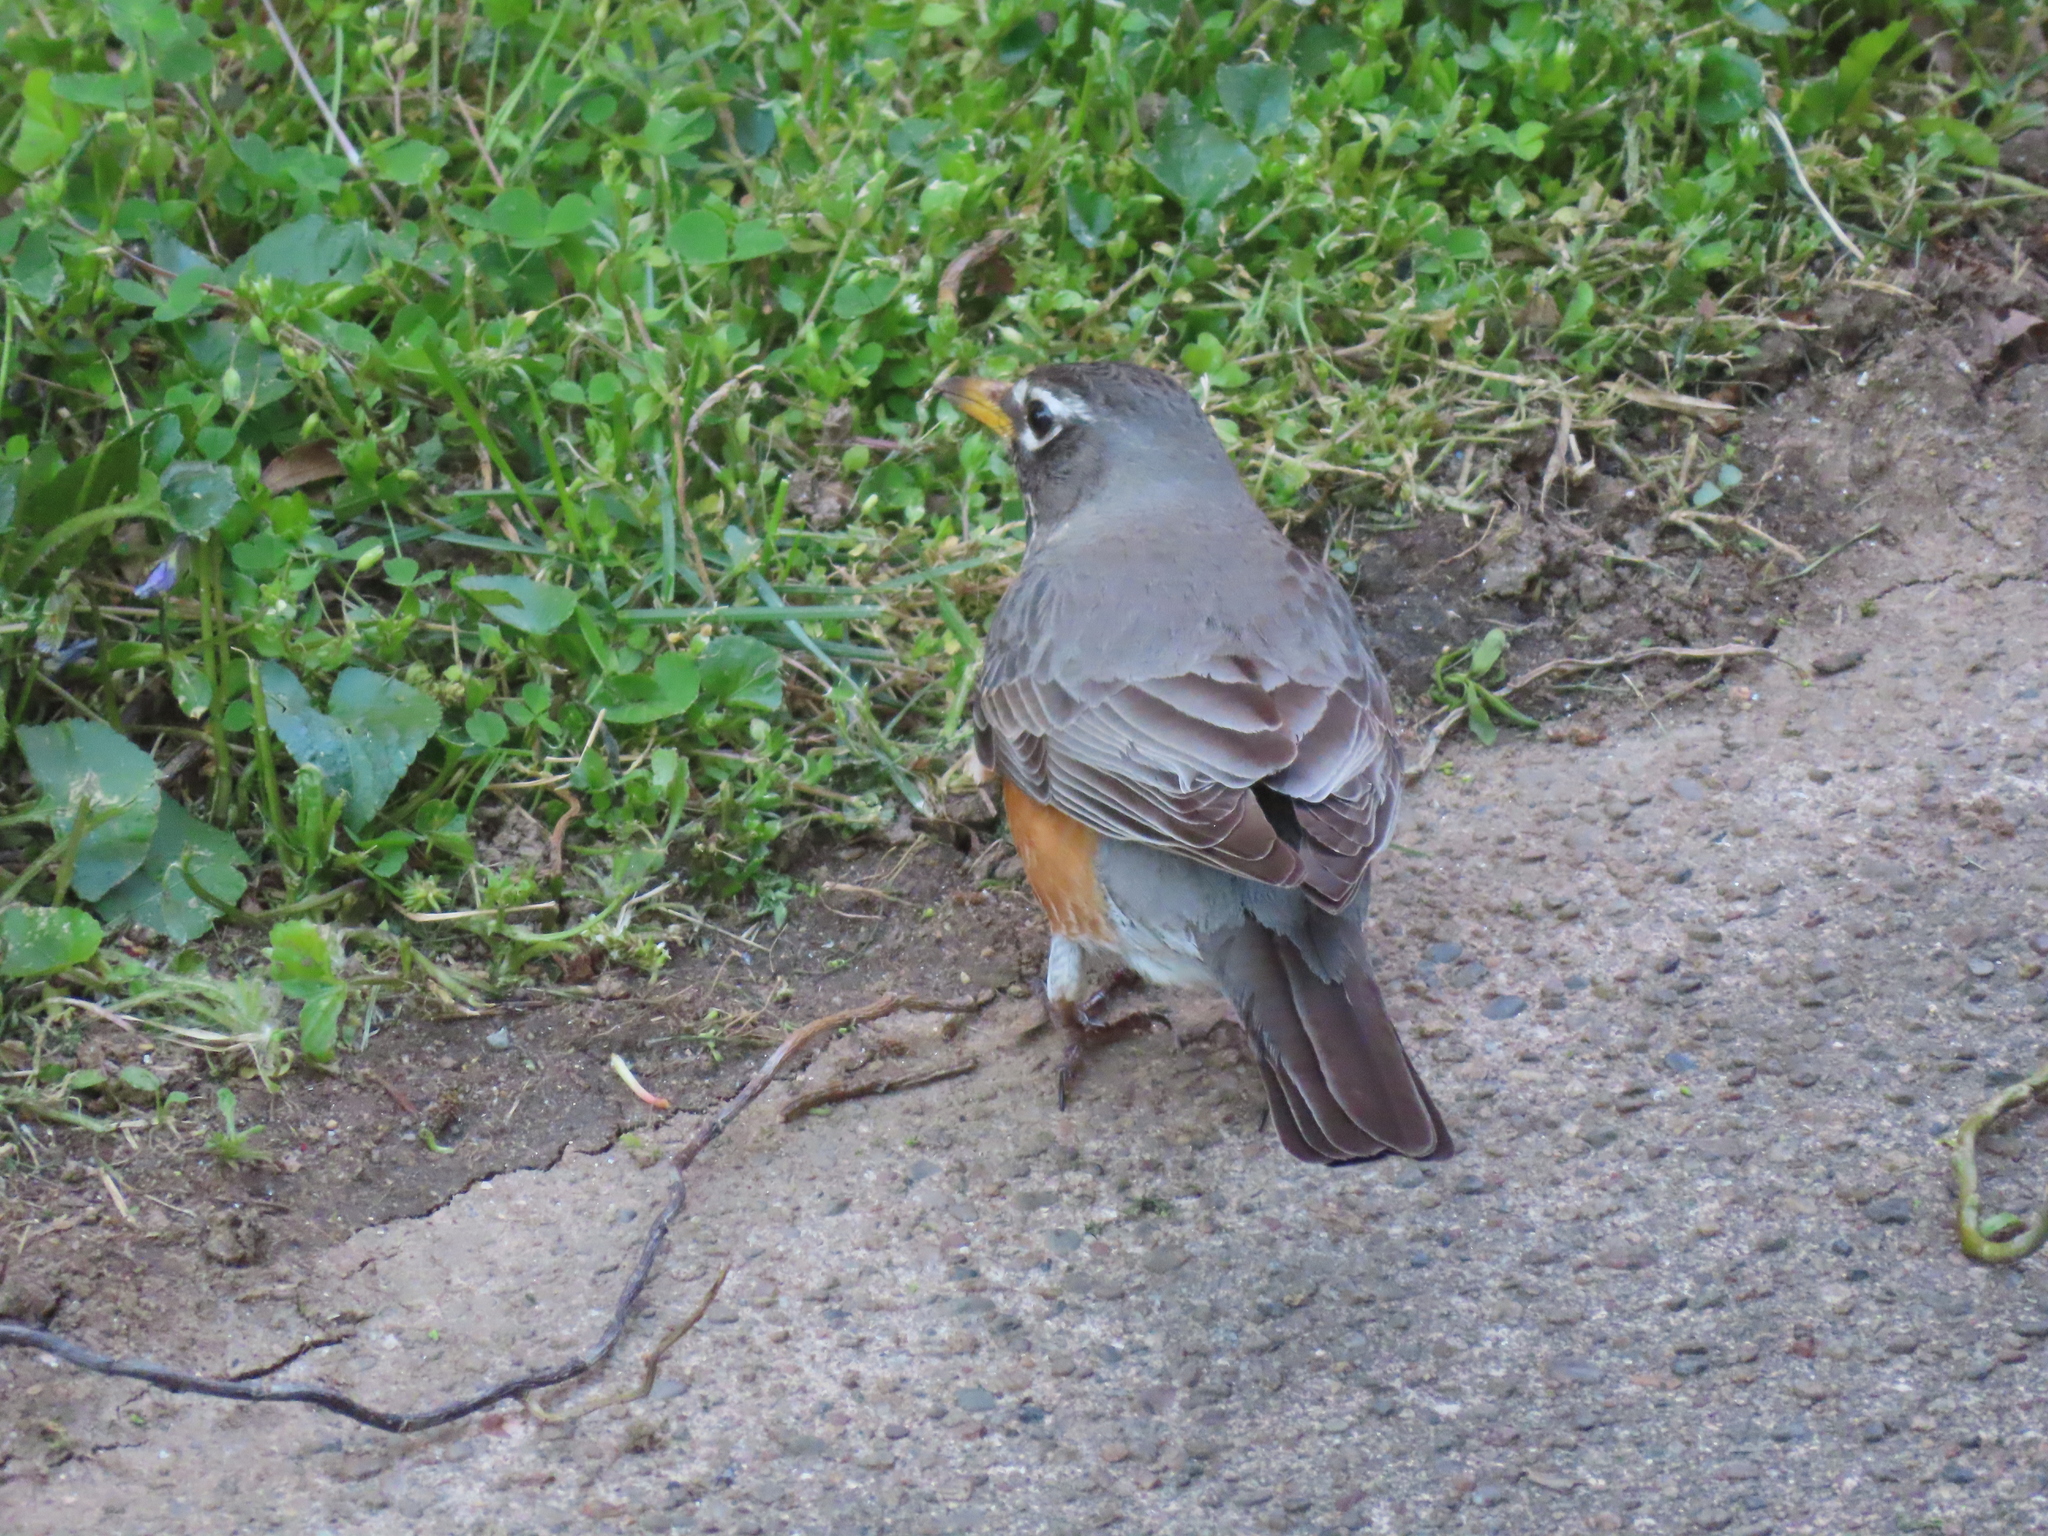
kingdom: Animalia
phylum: Chordata
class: Aves
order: Passeriformes
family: Turdidae
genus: Turdus
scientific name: Turdus migratorius
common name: American robin
